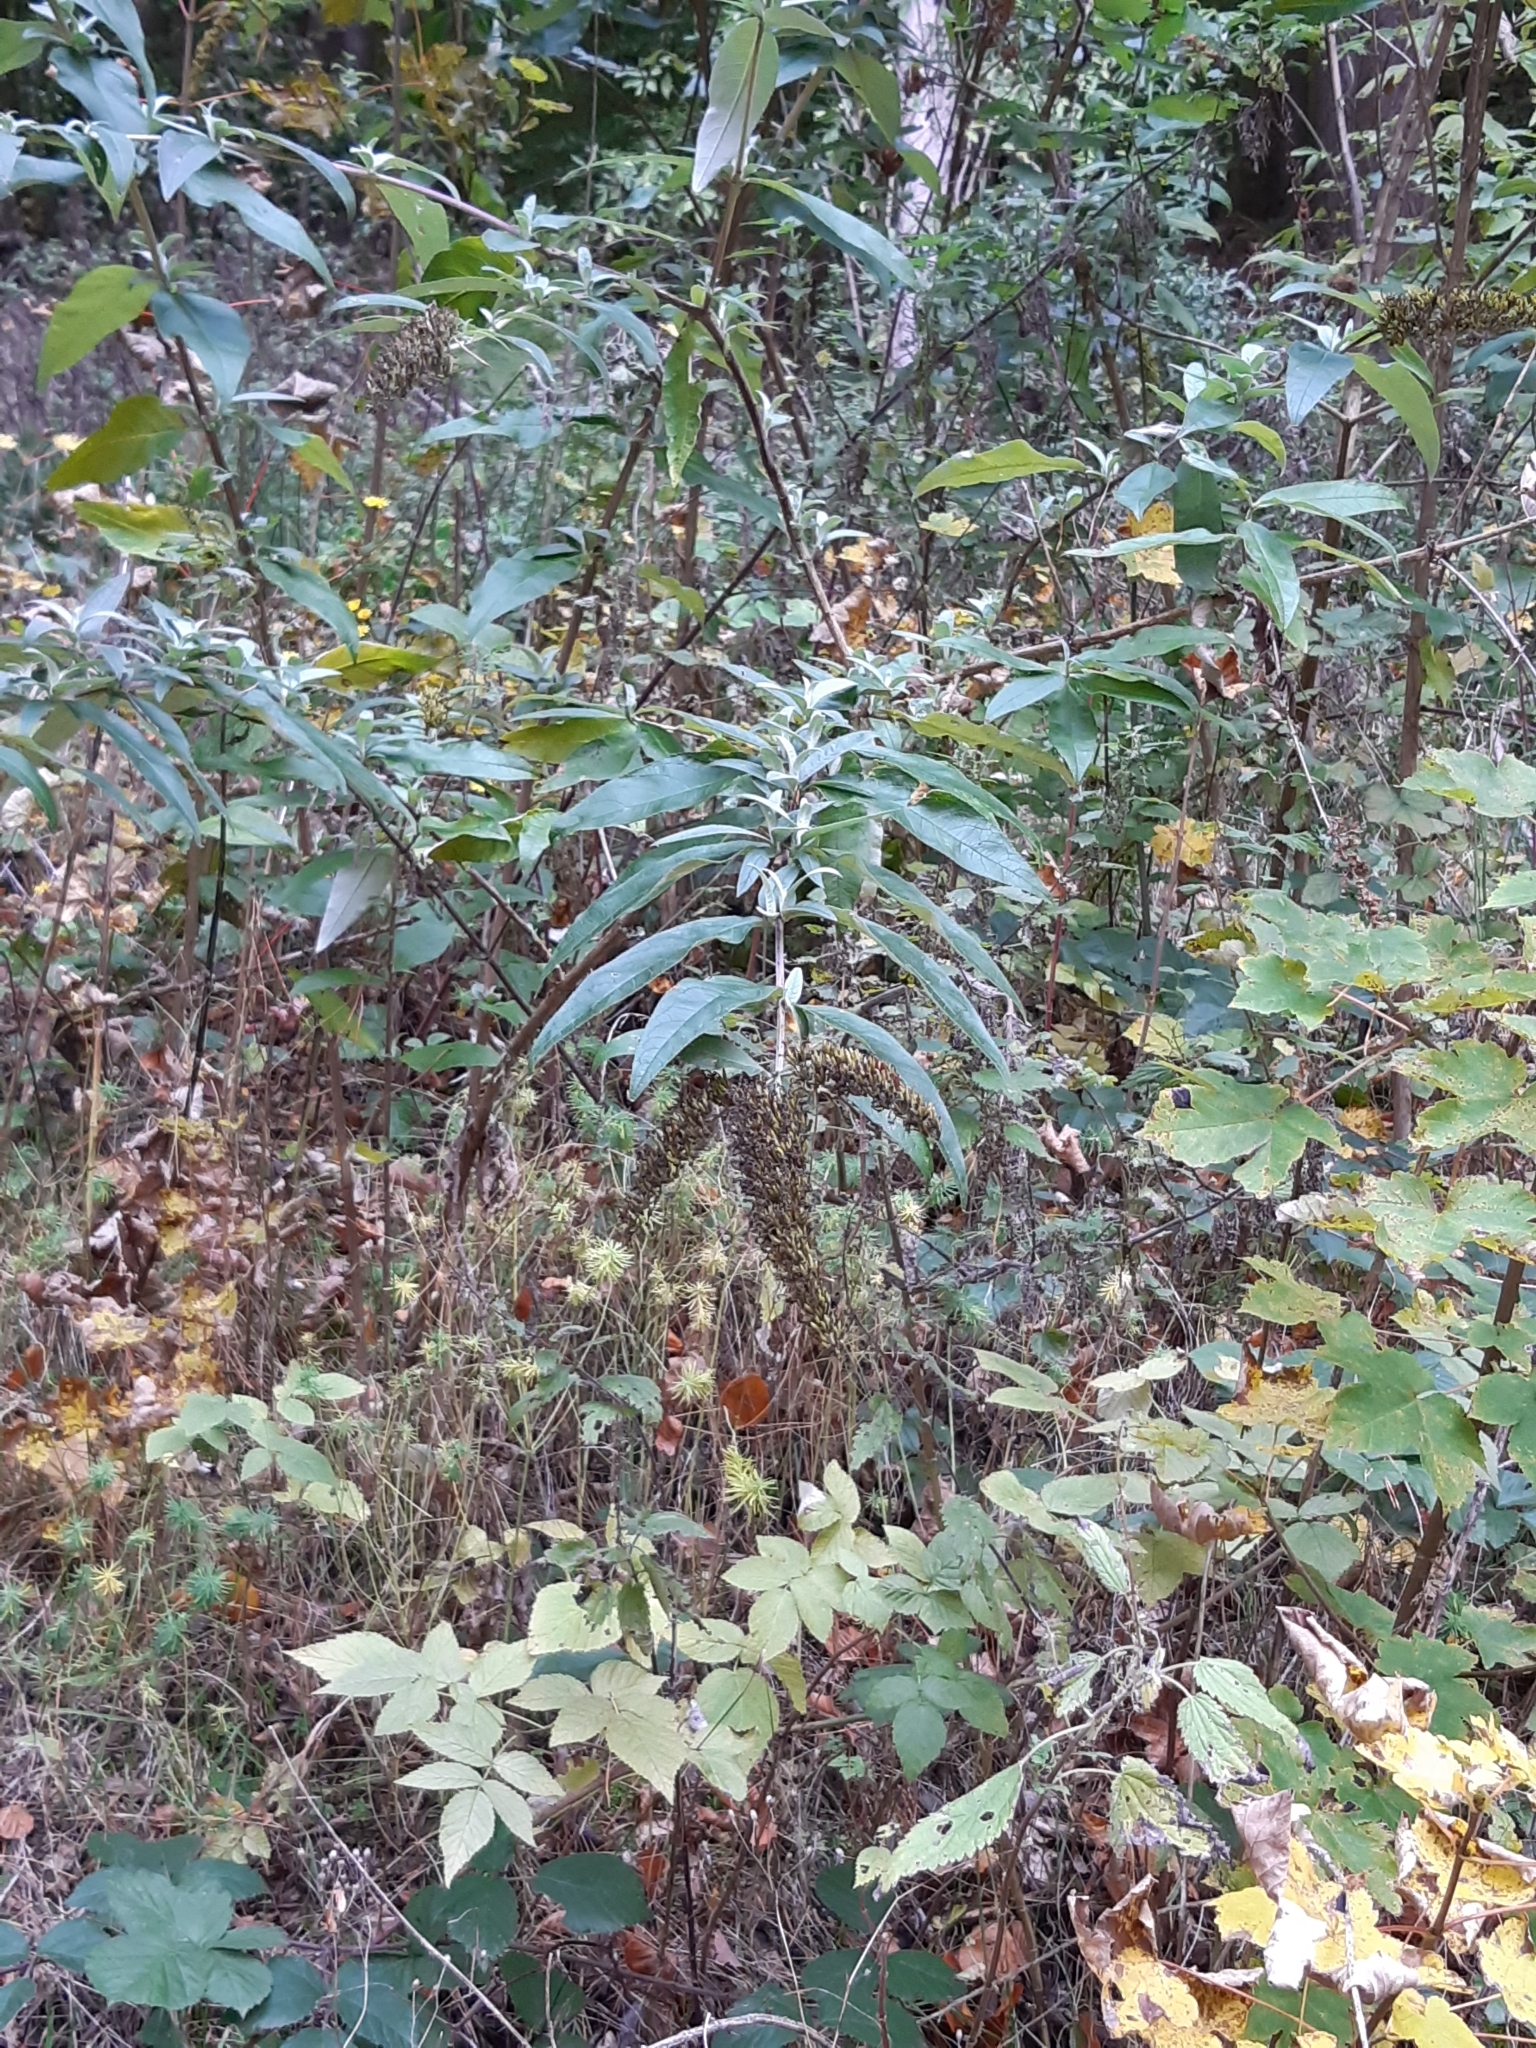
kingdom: Plantae
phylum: Tracheophyta
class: Magnoliopsida
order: Lamiales
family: Scrophulariaceae
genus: Buddleja
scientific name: Buddleja davidii
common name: Butterfly-bush
